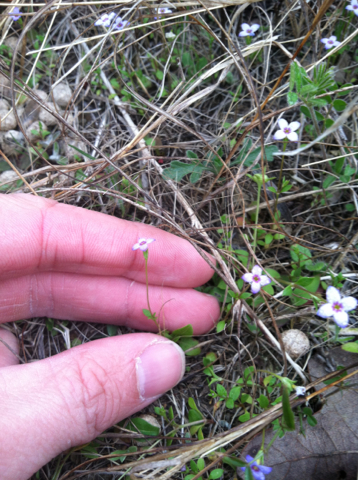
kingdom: Plantae
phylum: Tracheophyta
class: Magnoliopsida
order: Gentianales
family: Rubiaceae
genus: Houstonia
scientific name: Houstonia pusilla
